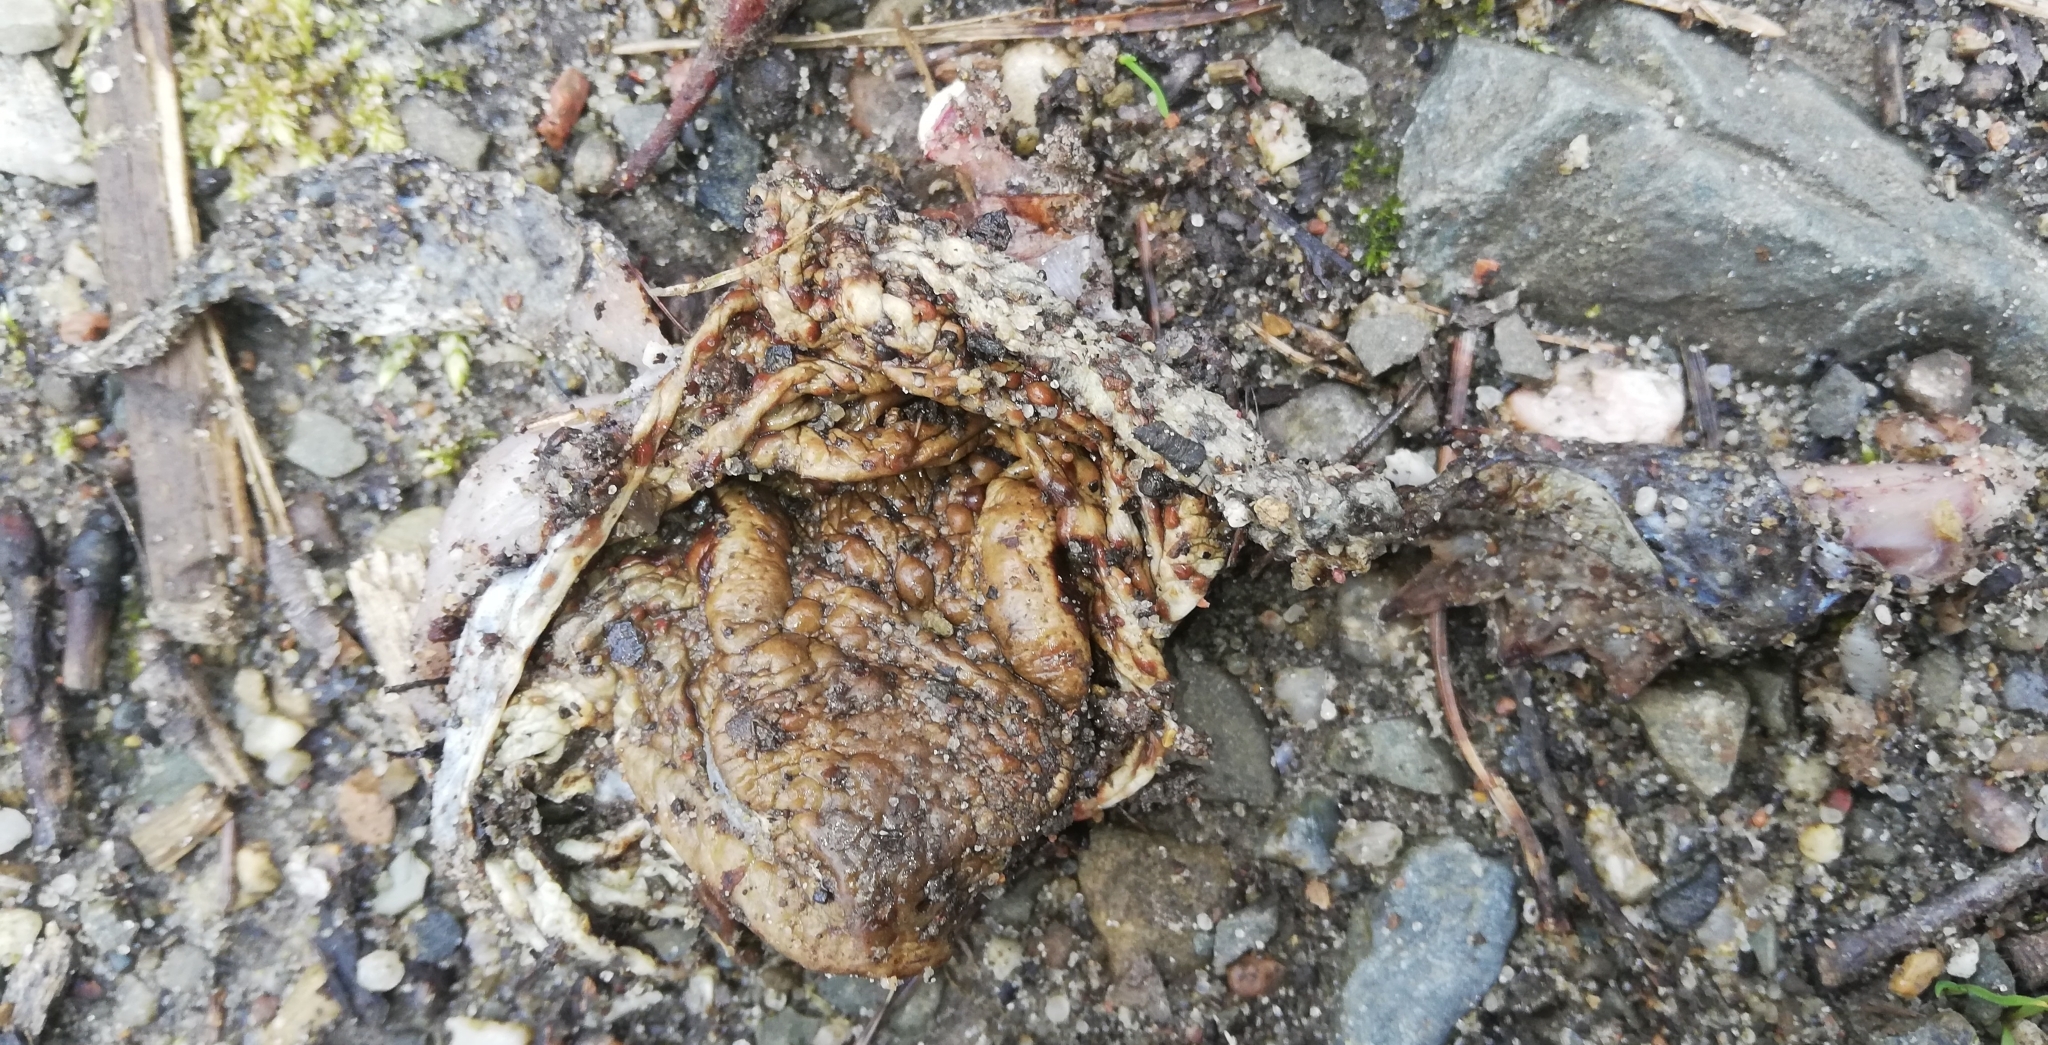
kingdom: Animalia
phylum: Chordata
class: Amphibia
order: Anura
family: Bufonidae
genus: Bufo
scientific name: Bufo bufo
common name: Common toad
